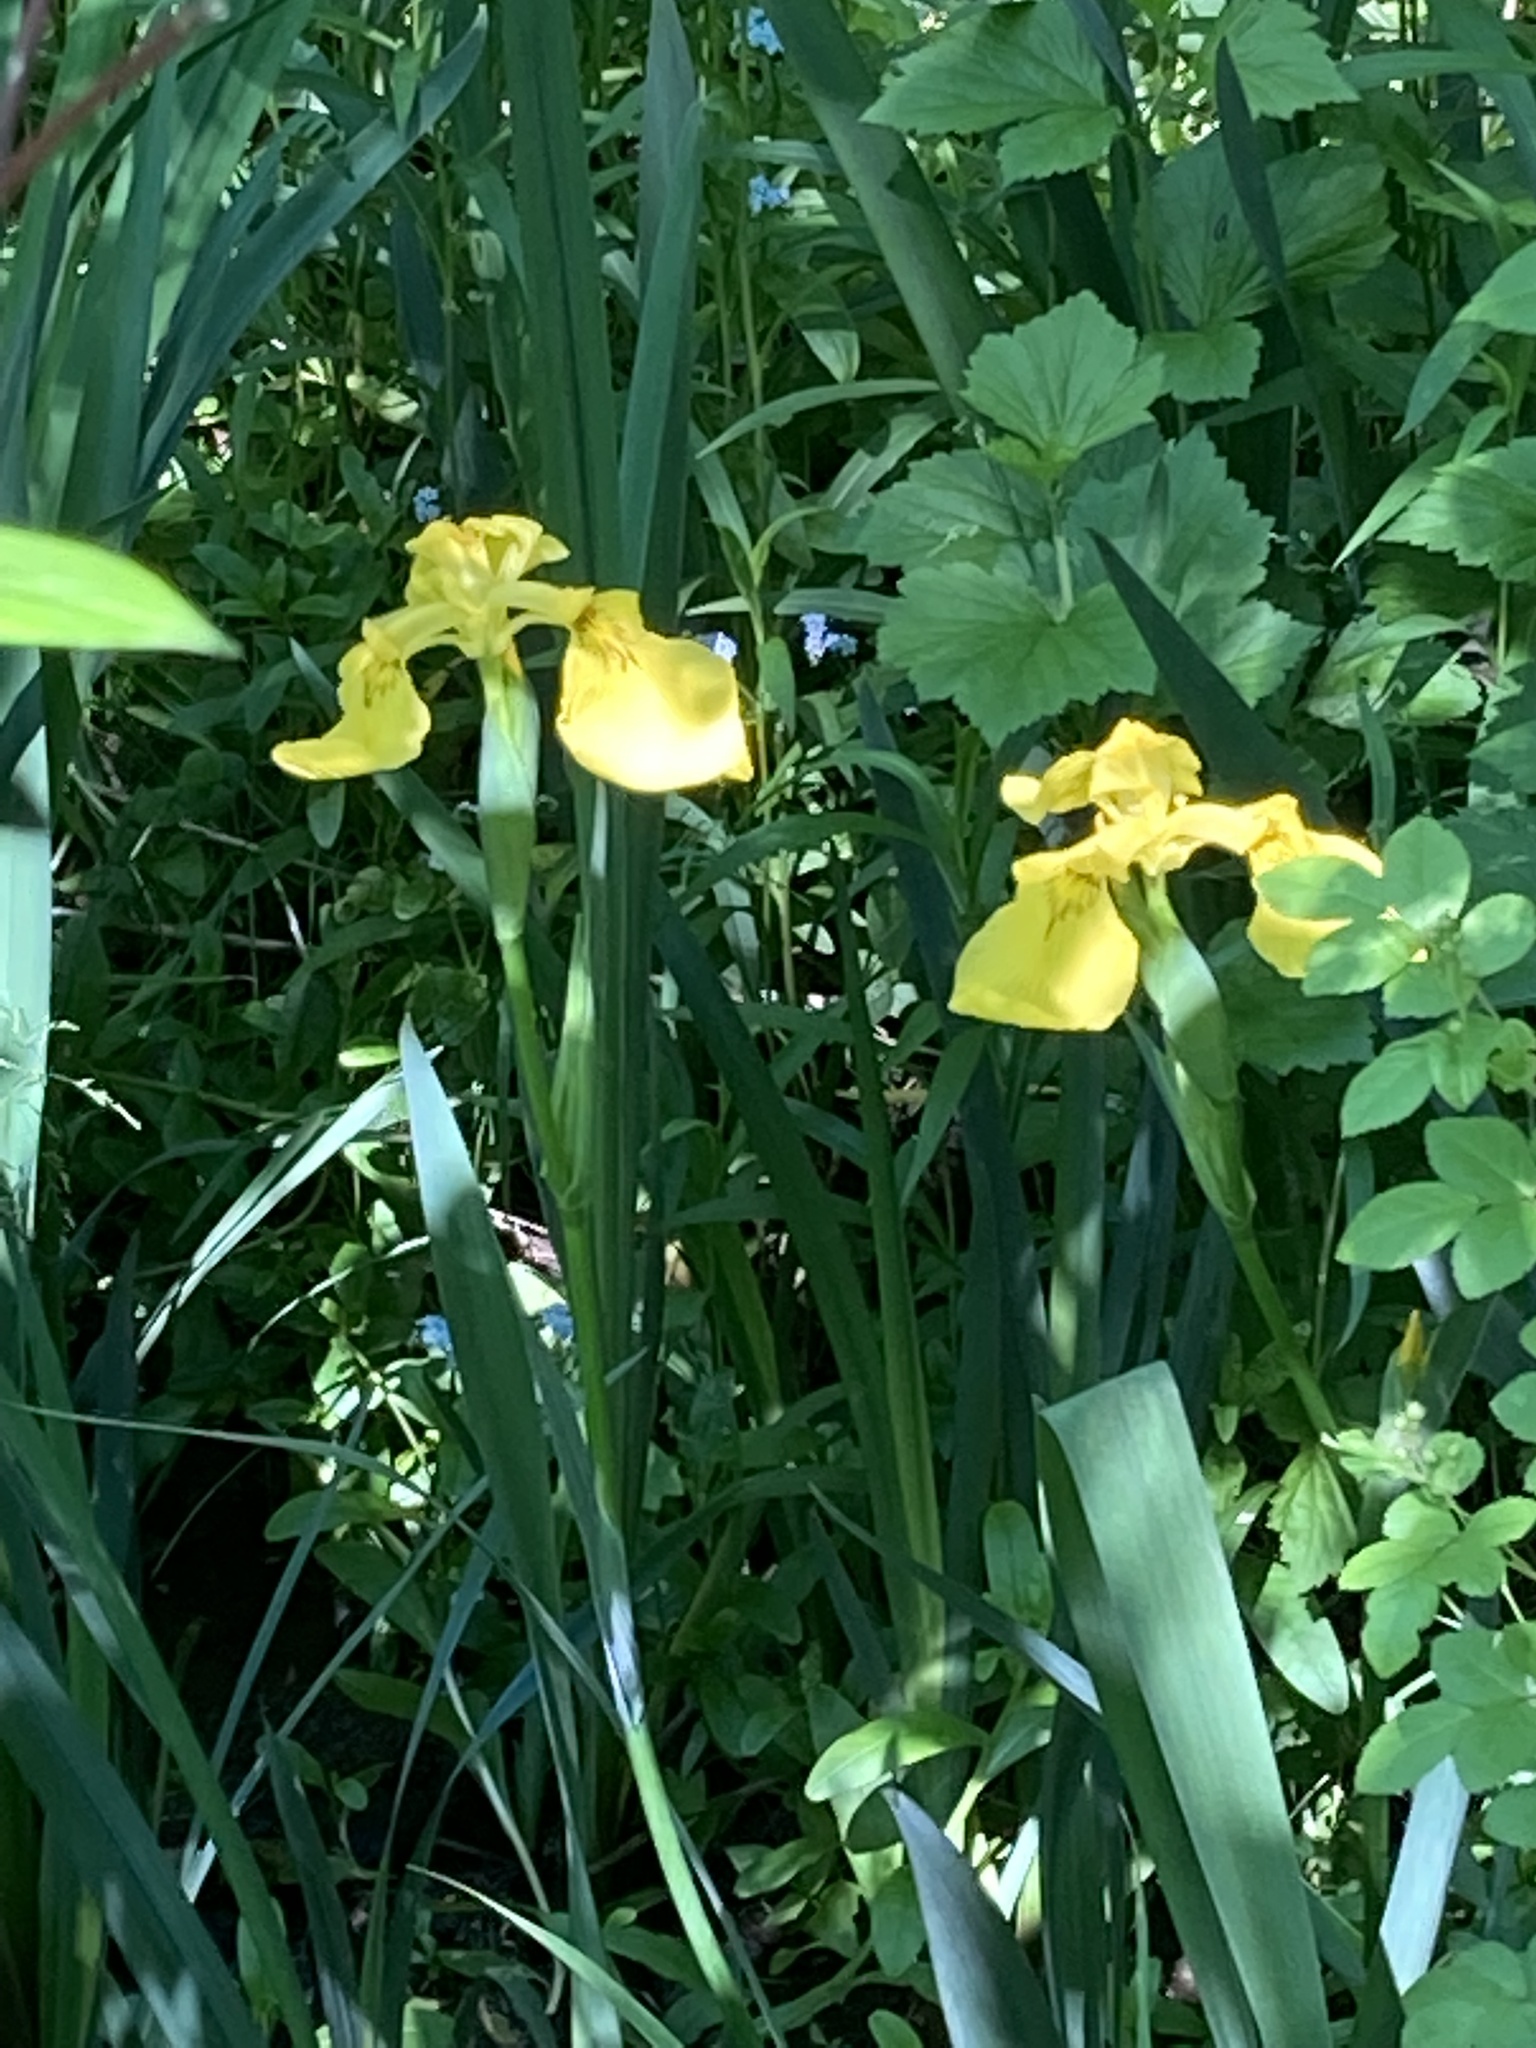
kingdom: Plantae
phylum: Tracheophyta
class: Liliopsida
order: Asparagales
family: Iridaceae
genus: Iris
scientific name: Iris pseudacorus
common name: Yellow flag
